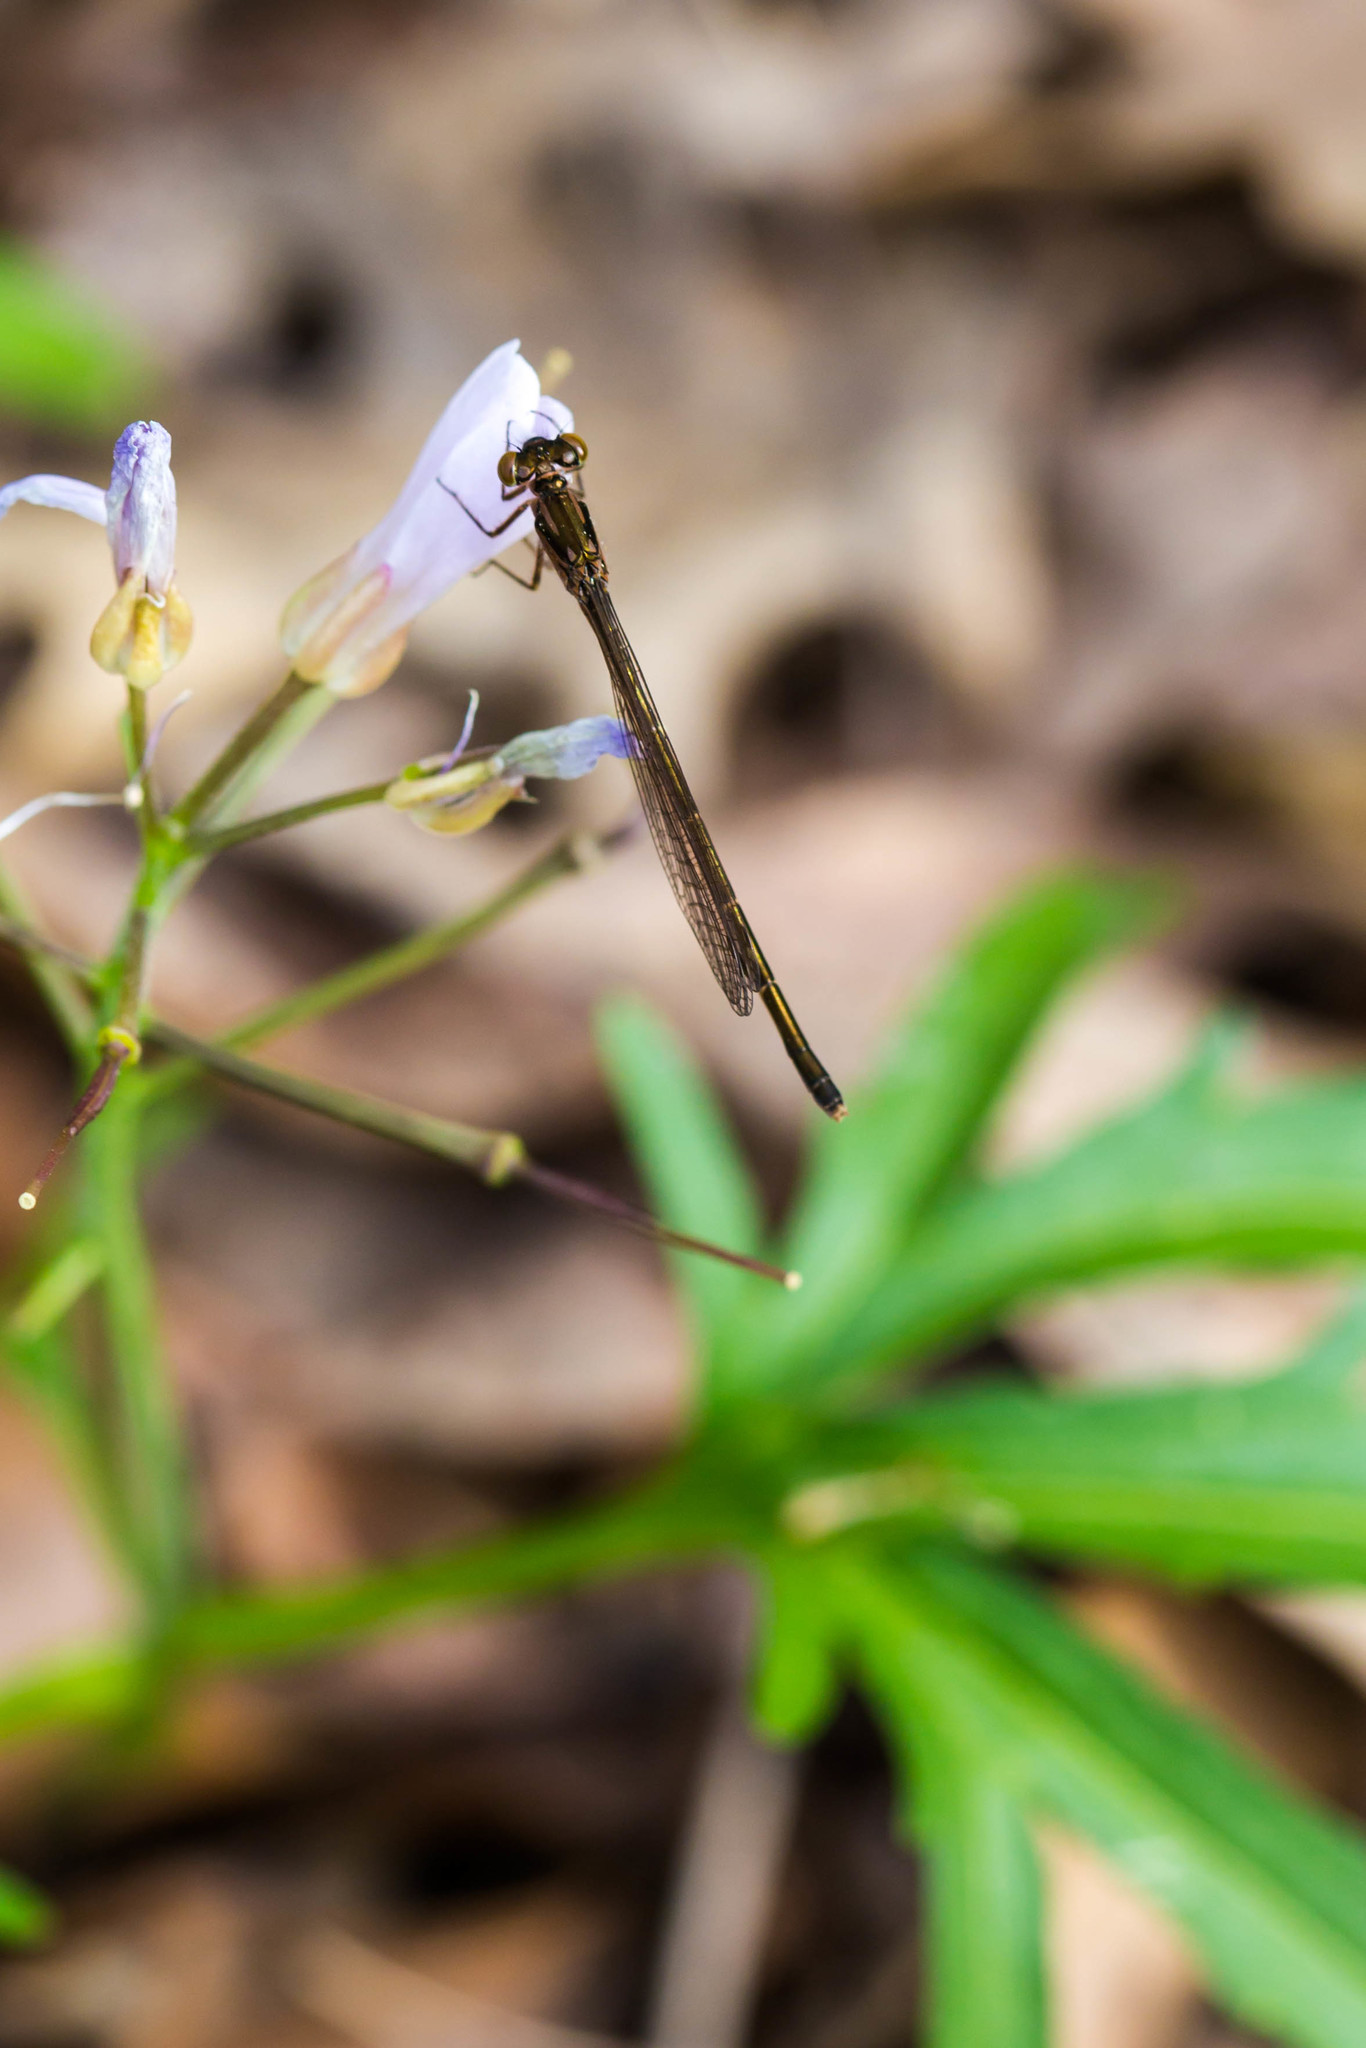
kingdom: Animalia
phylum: Arthropoda
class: Insecta
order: Odonata
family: Coenagrionidae
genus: Ischnura
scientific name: Ischnura posita
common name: Fragile forktail
